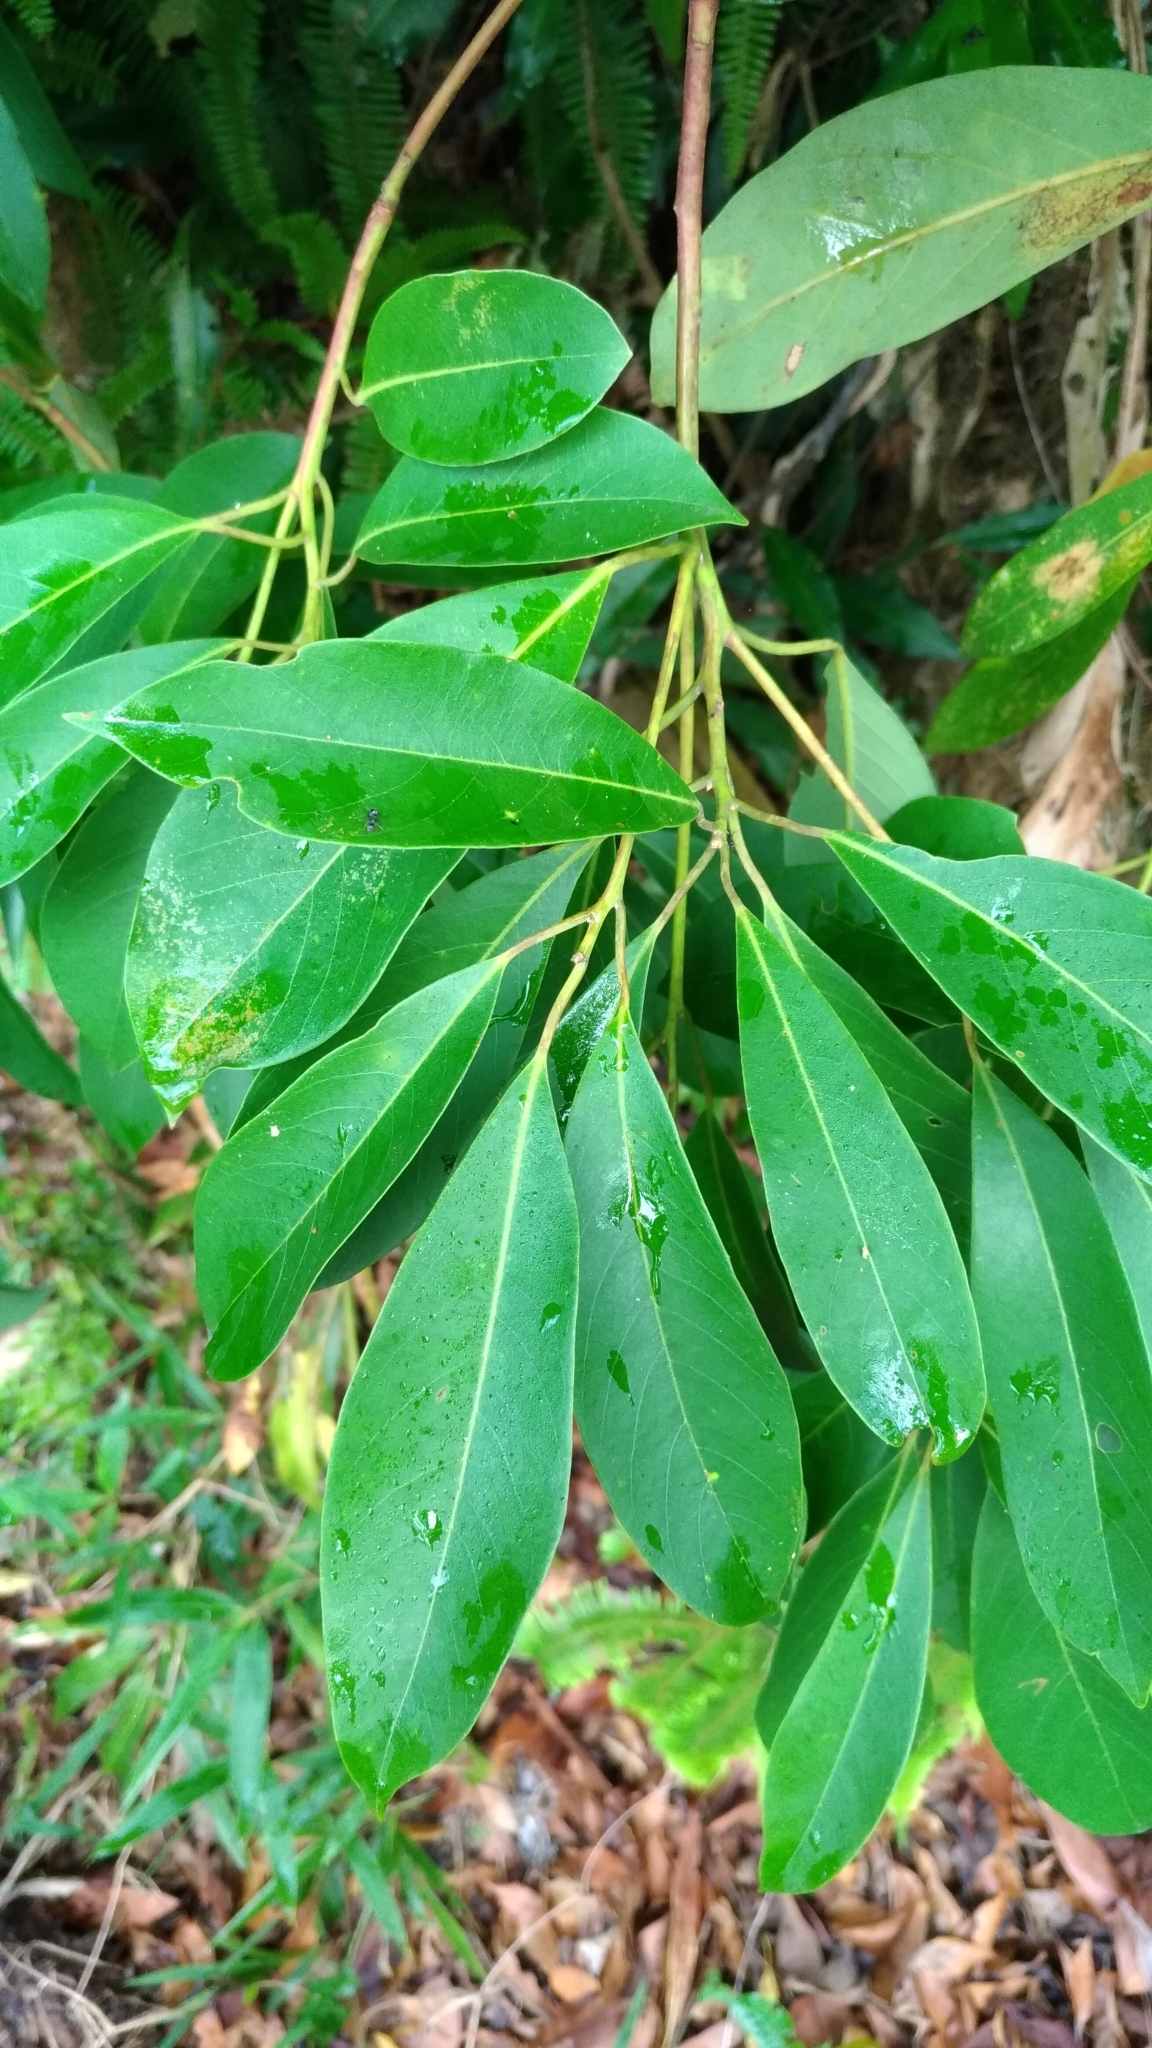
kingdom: Plantae
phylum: Tracheophyta
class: Magnoliopsida
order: Laurales
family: Lauraceae
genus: Machilus
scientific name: Machilus zuihoensis
